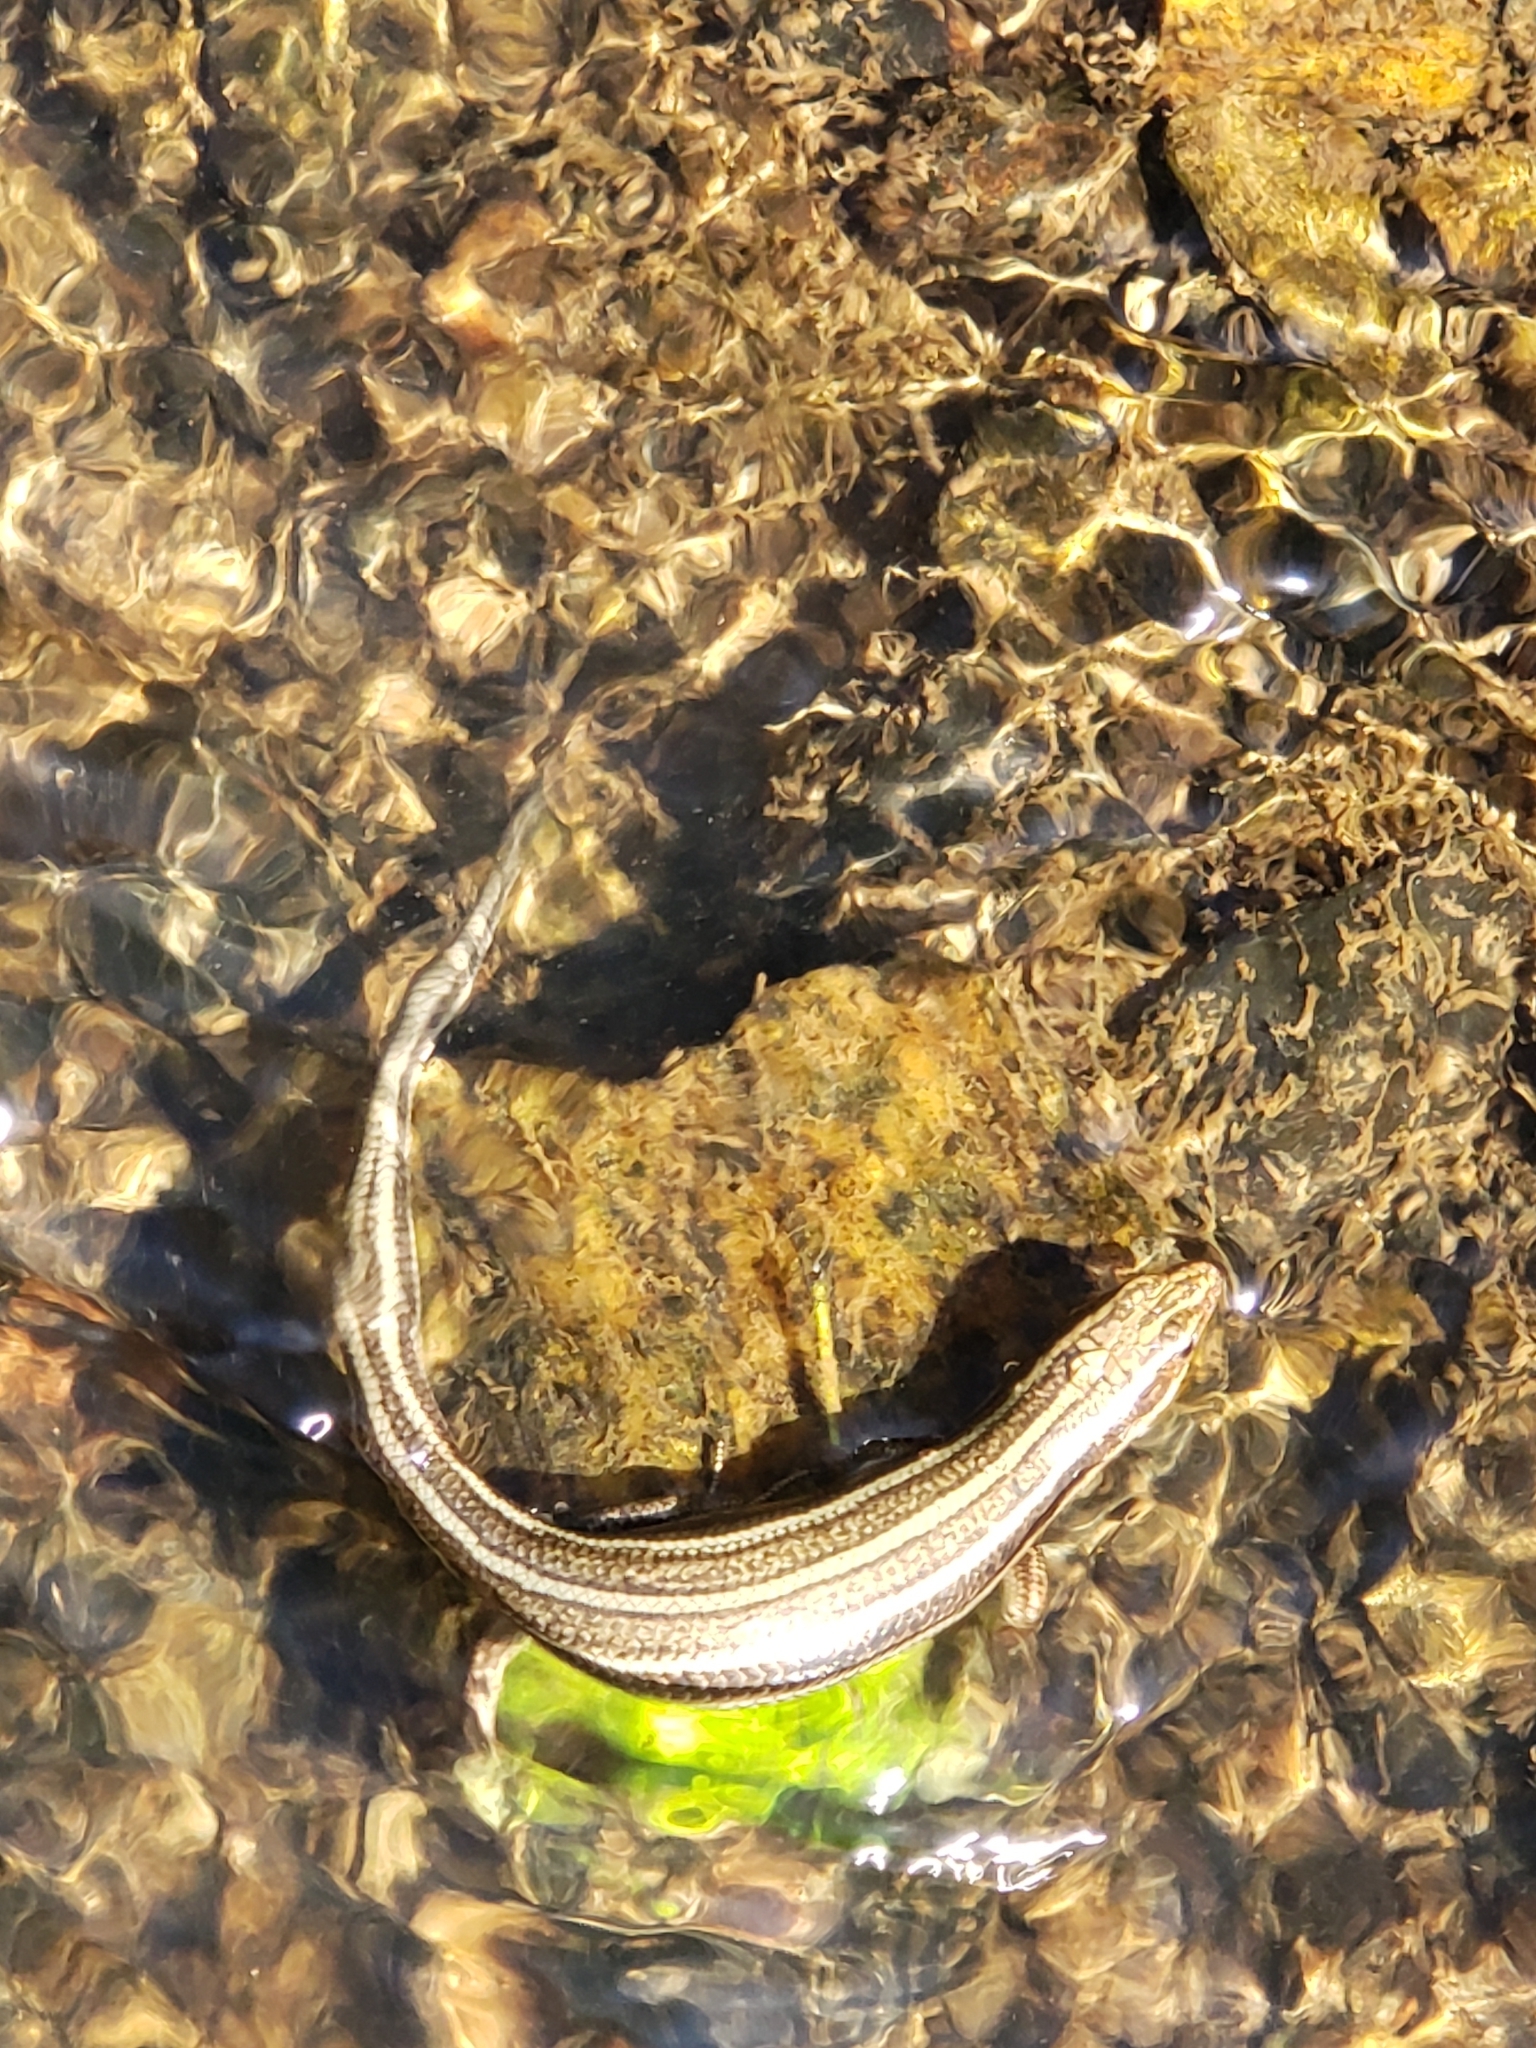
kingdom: Animalia
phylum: Chordata
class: Squamata
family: Scincidae
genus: Plestiodon
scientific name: Plestiodon fasciatus
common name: Five-lined skink
